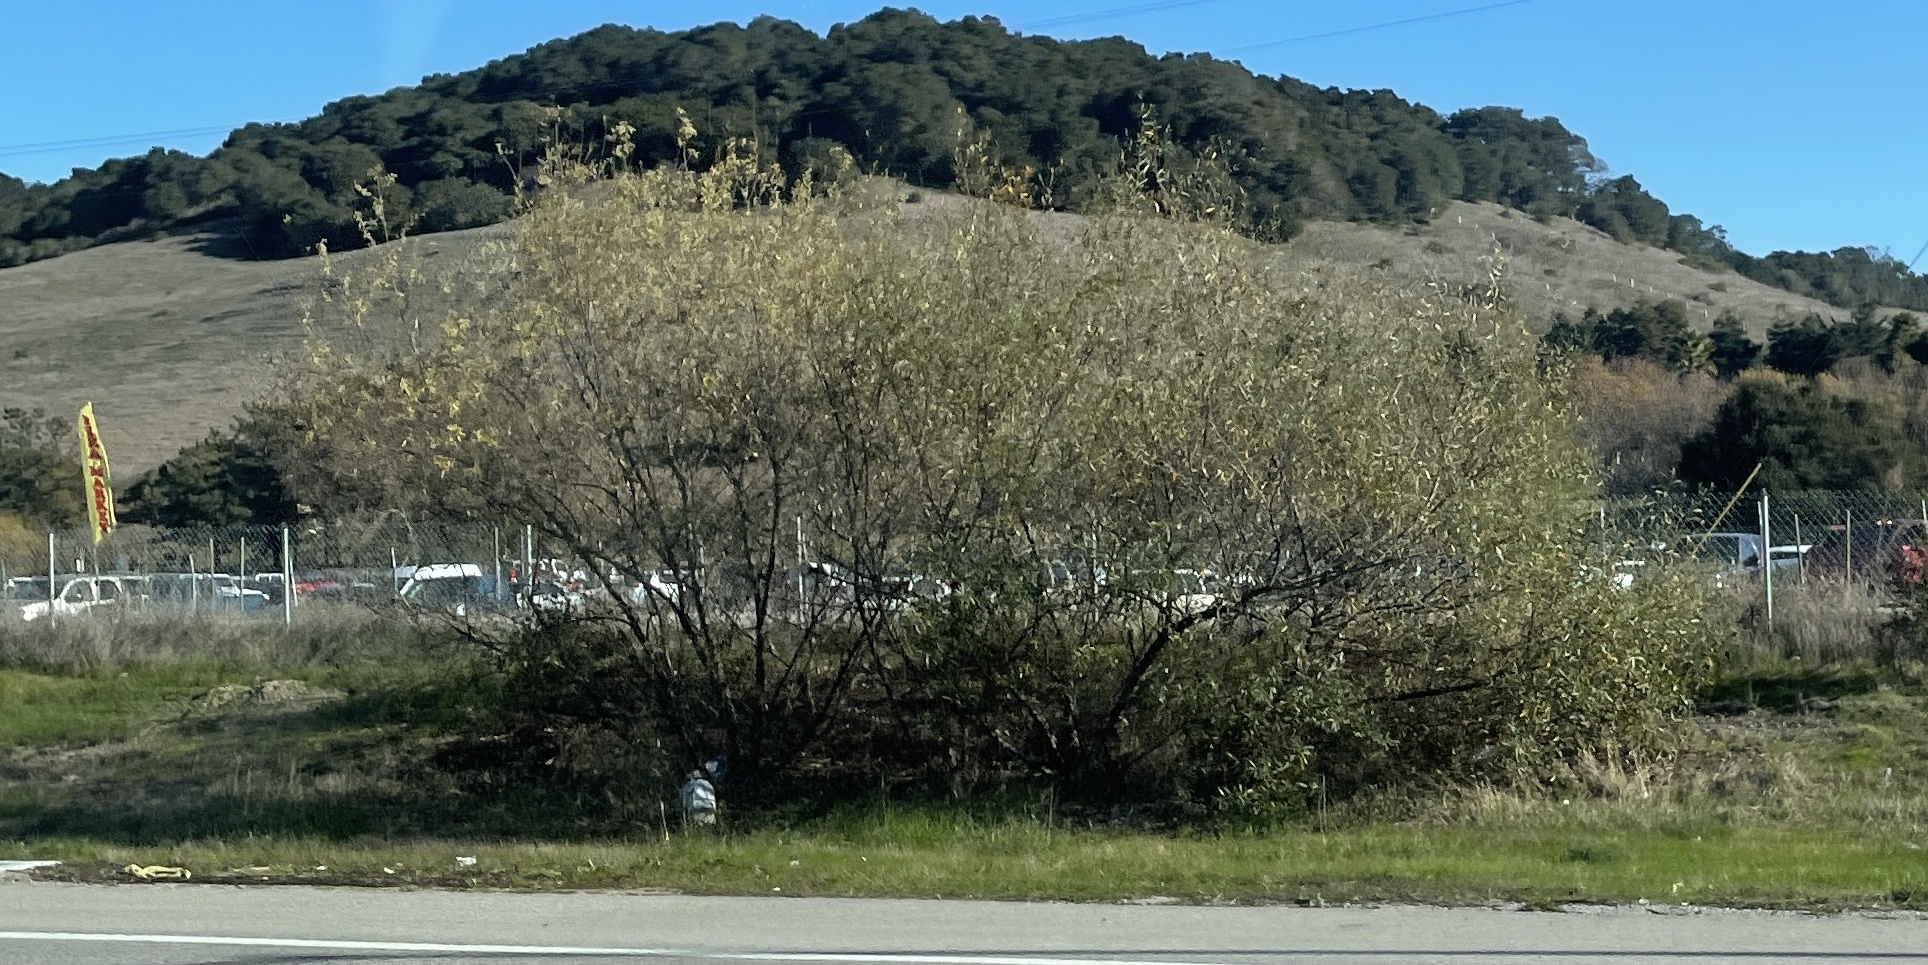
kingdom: Plantae
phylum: Tracheophyta
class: Magnoliopsida
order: Malpighiales
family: Salicaceae
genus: Salix
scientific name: Salix
